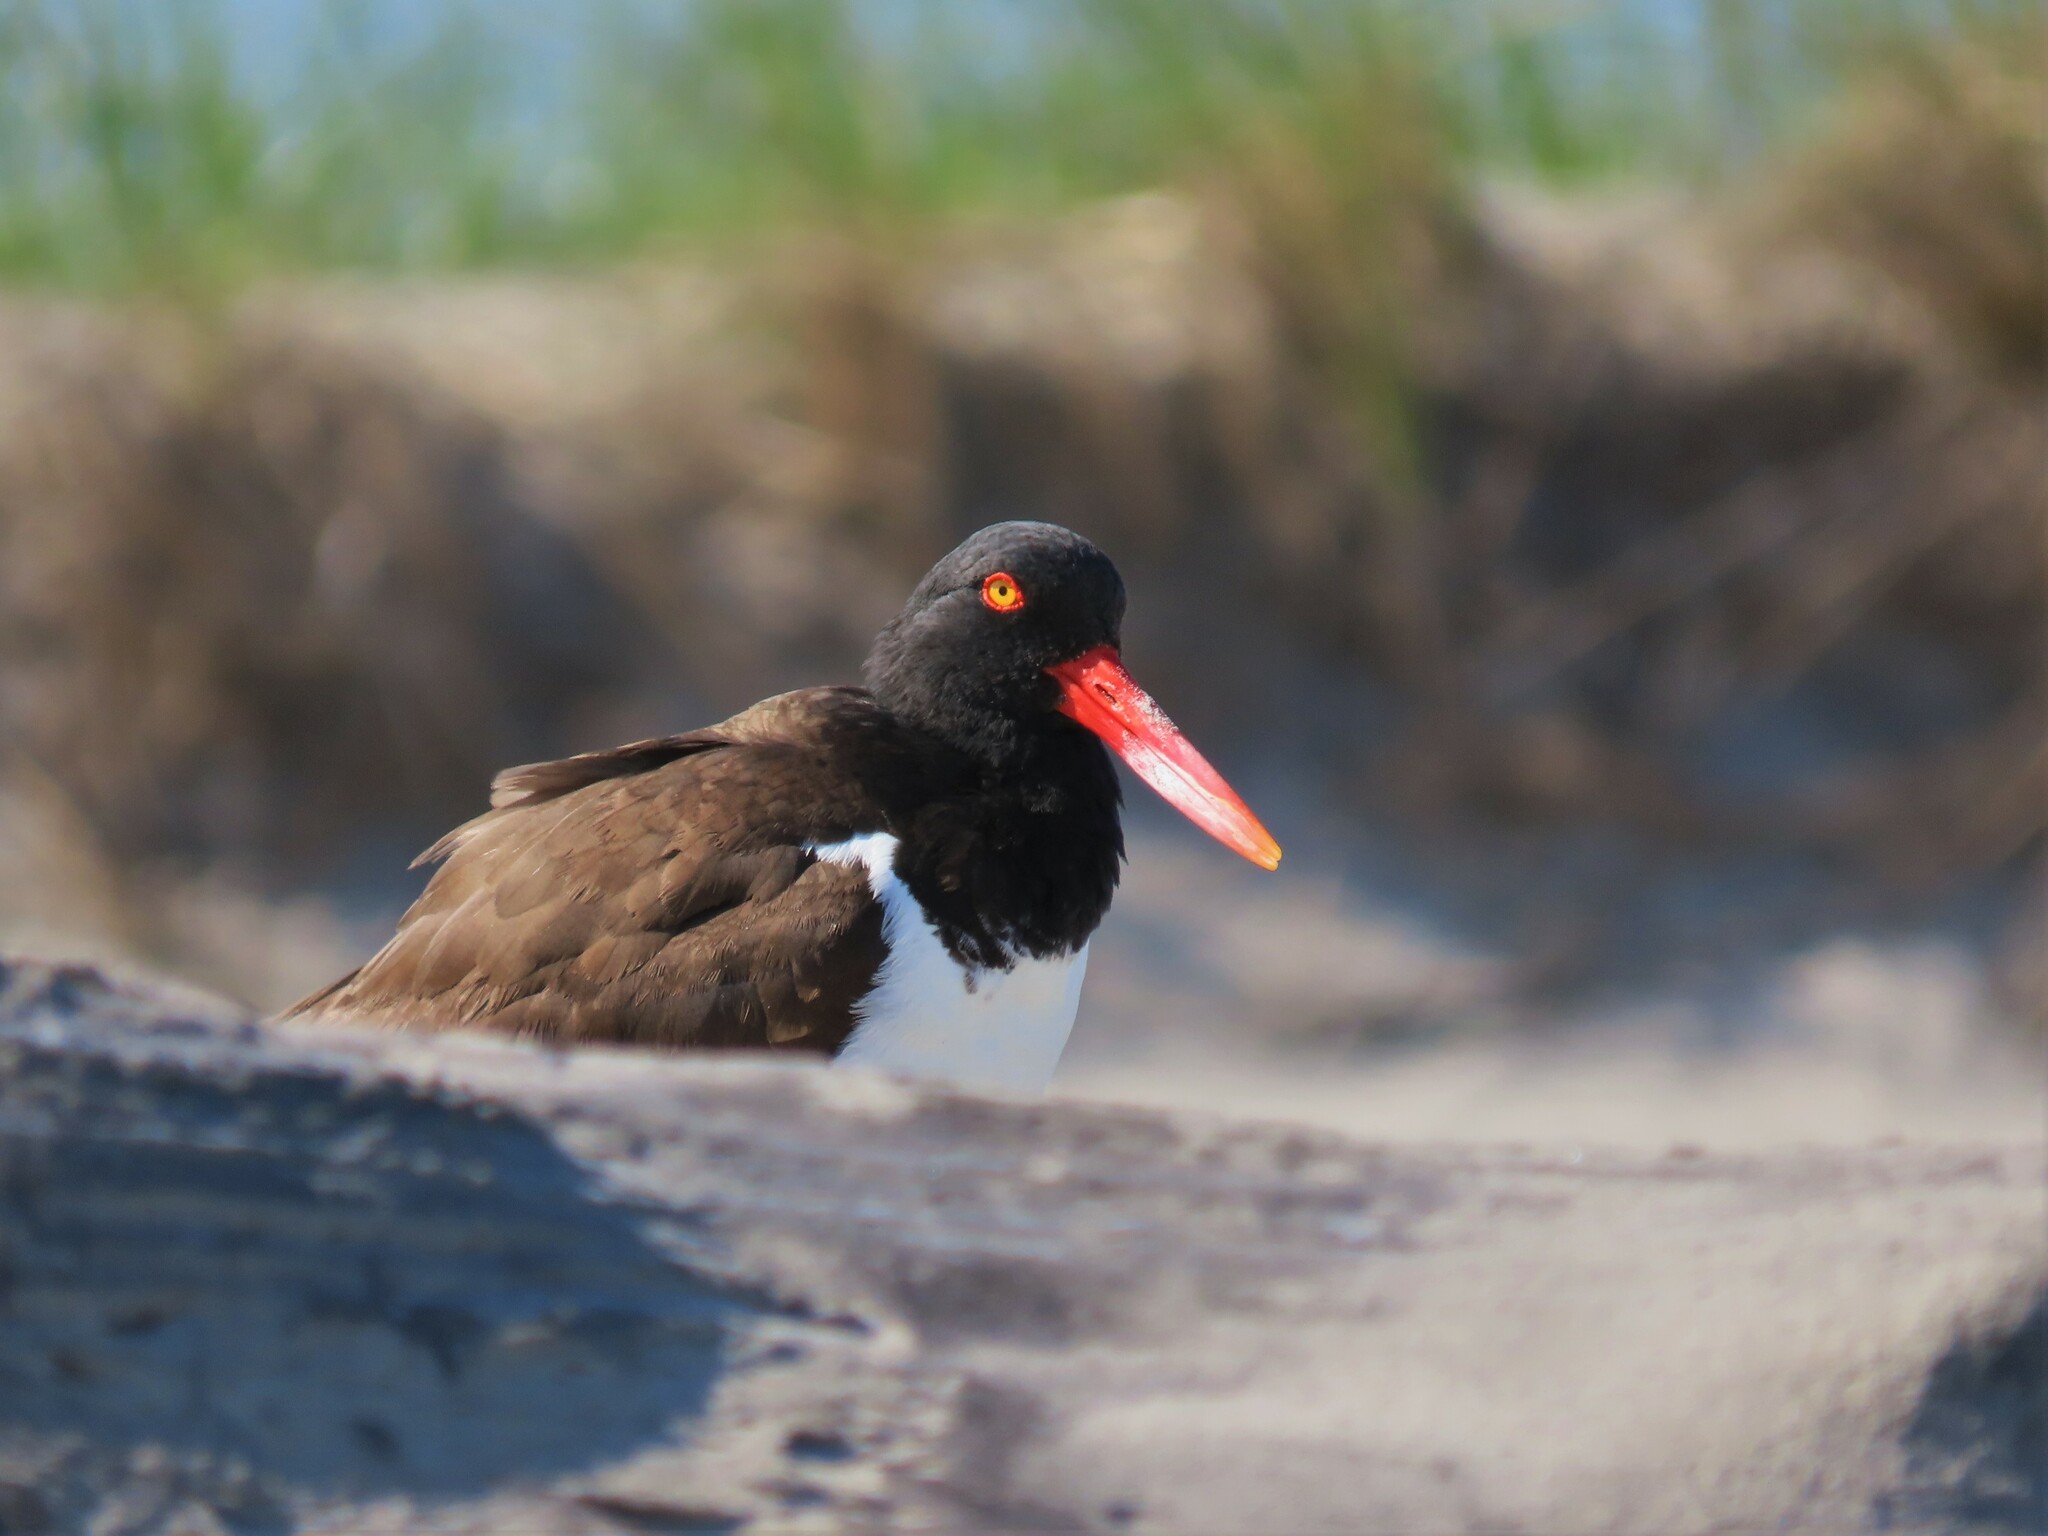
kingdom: Animalia
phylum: Chordata
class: Aves
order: Charadriiformes
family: Haematopodidae
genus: Haematopus
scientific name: Haematopus palliatus
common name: American oystercatcher
